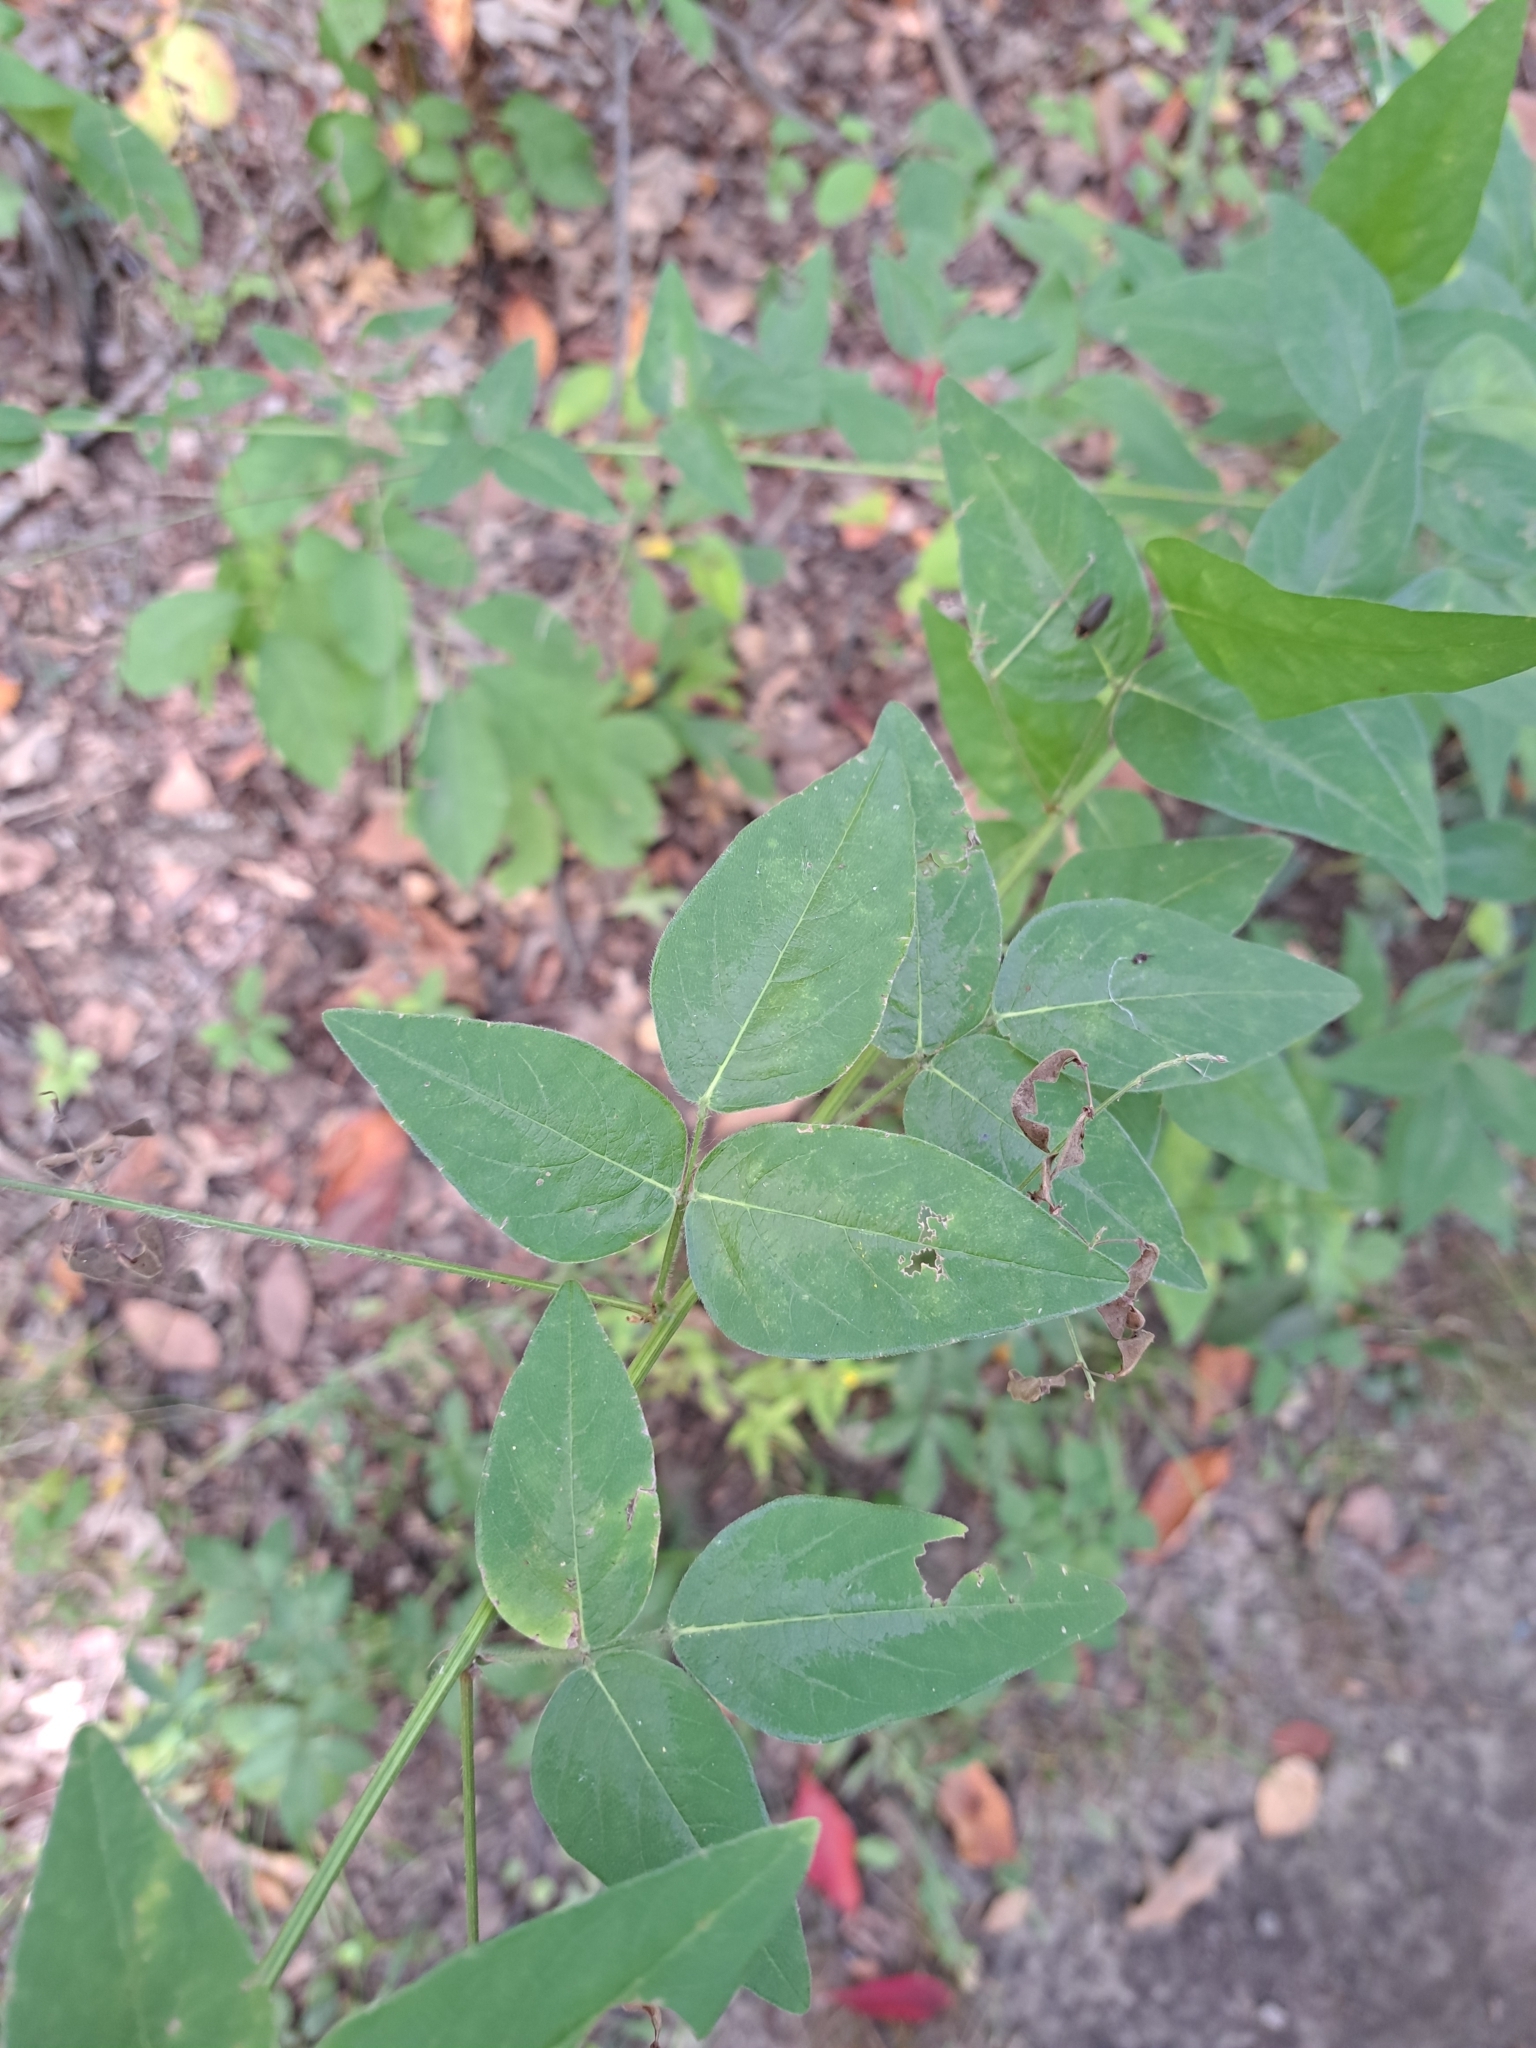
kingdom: Plantae
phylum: Tracheophyta
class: Magnoliopsida
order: Fabales
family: Fabaceae
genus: Desmodium
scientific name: Desmodium glabellum
